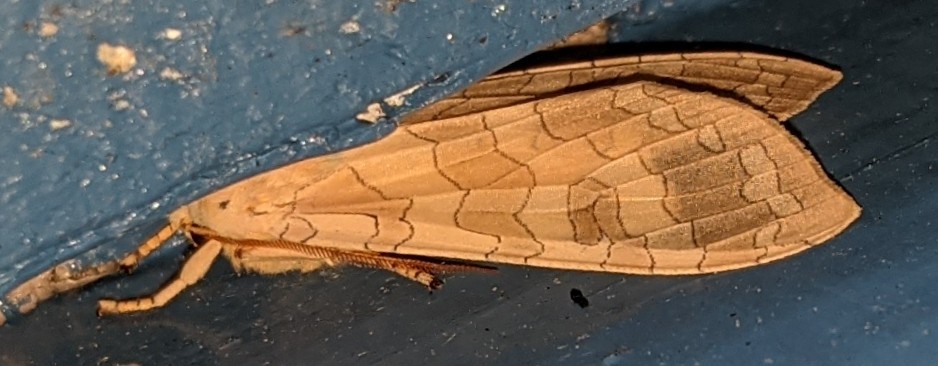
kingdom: Animalia
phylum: Arthropoda
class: Insecta
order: Lepidoptera
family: Erebidae
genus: Halysidota
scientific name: Halysidota tessellaris
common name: Banded tussock moth
